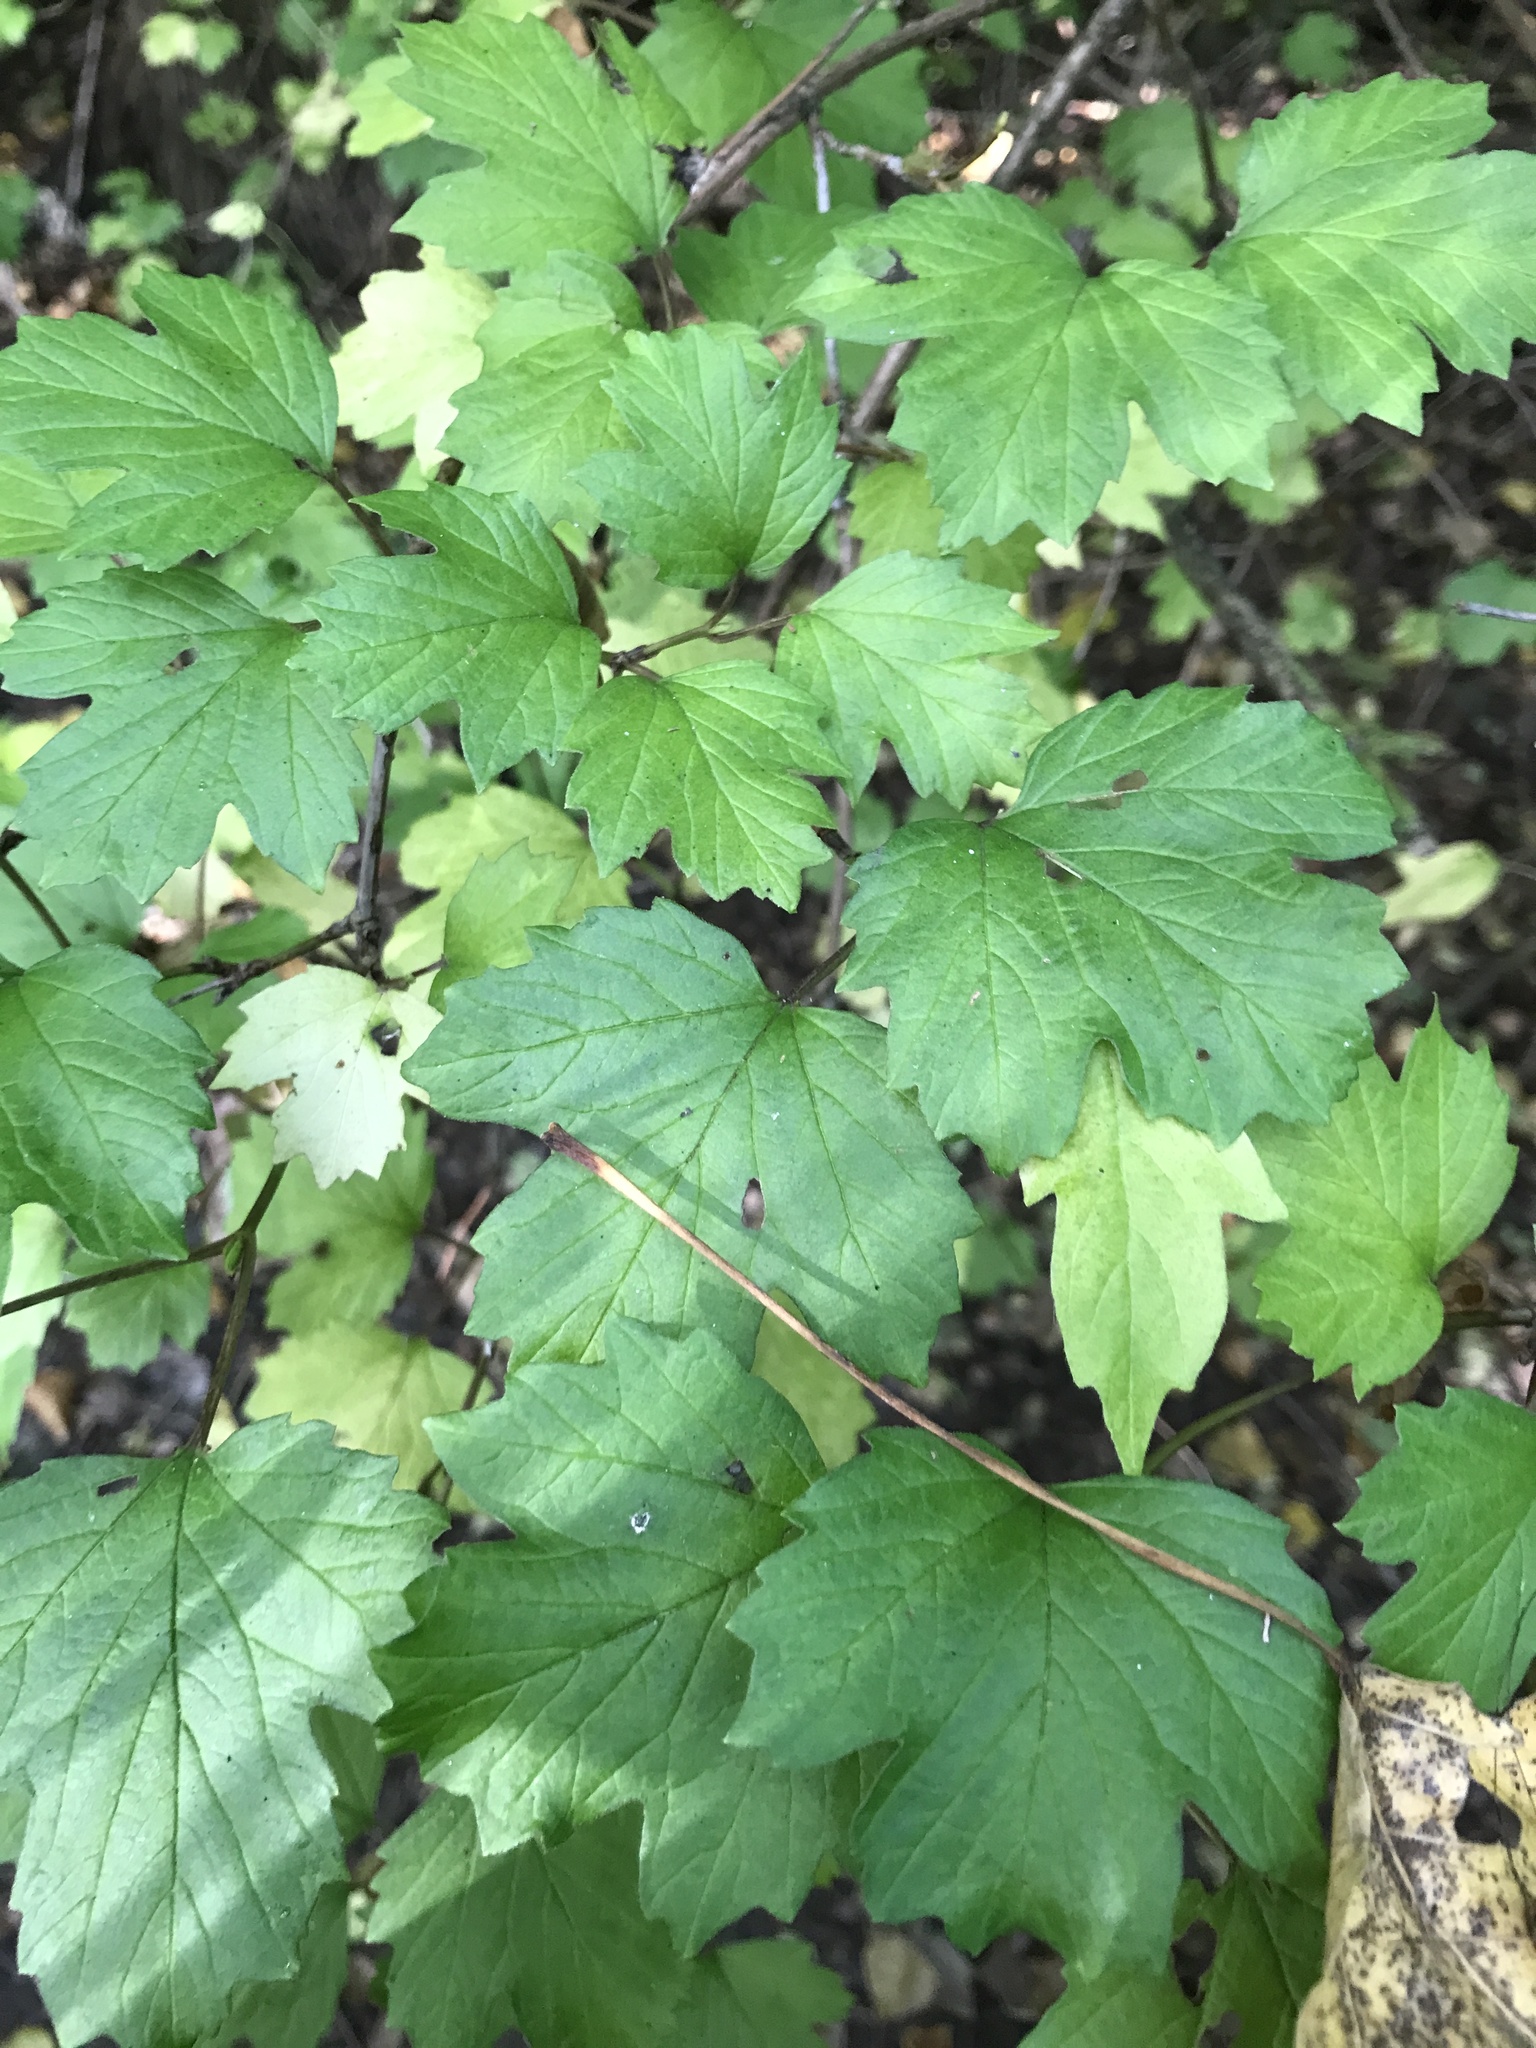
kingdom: Plantae
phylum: Tracheophyta
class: Magnoliopsida
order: Dipsacales
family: Viburnaceae
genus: Viburnum
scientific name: Viburnum opulus
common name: Guelder-rose
